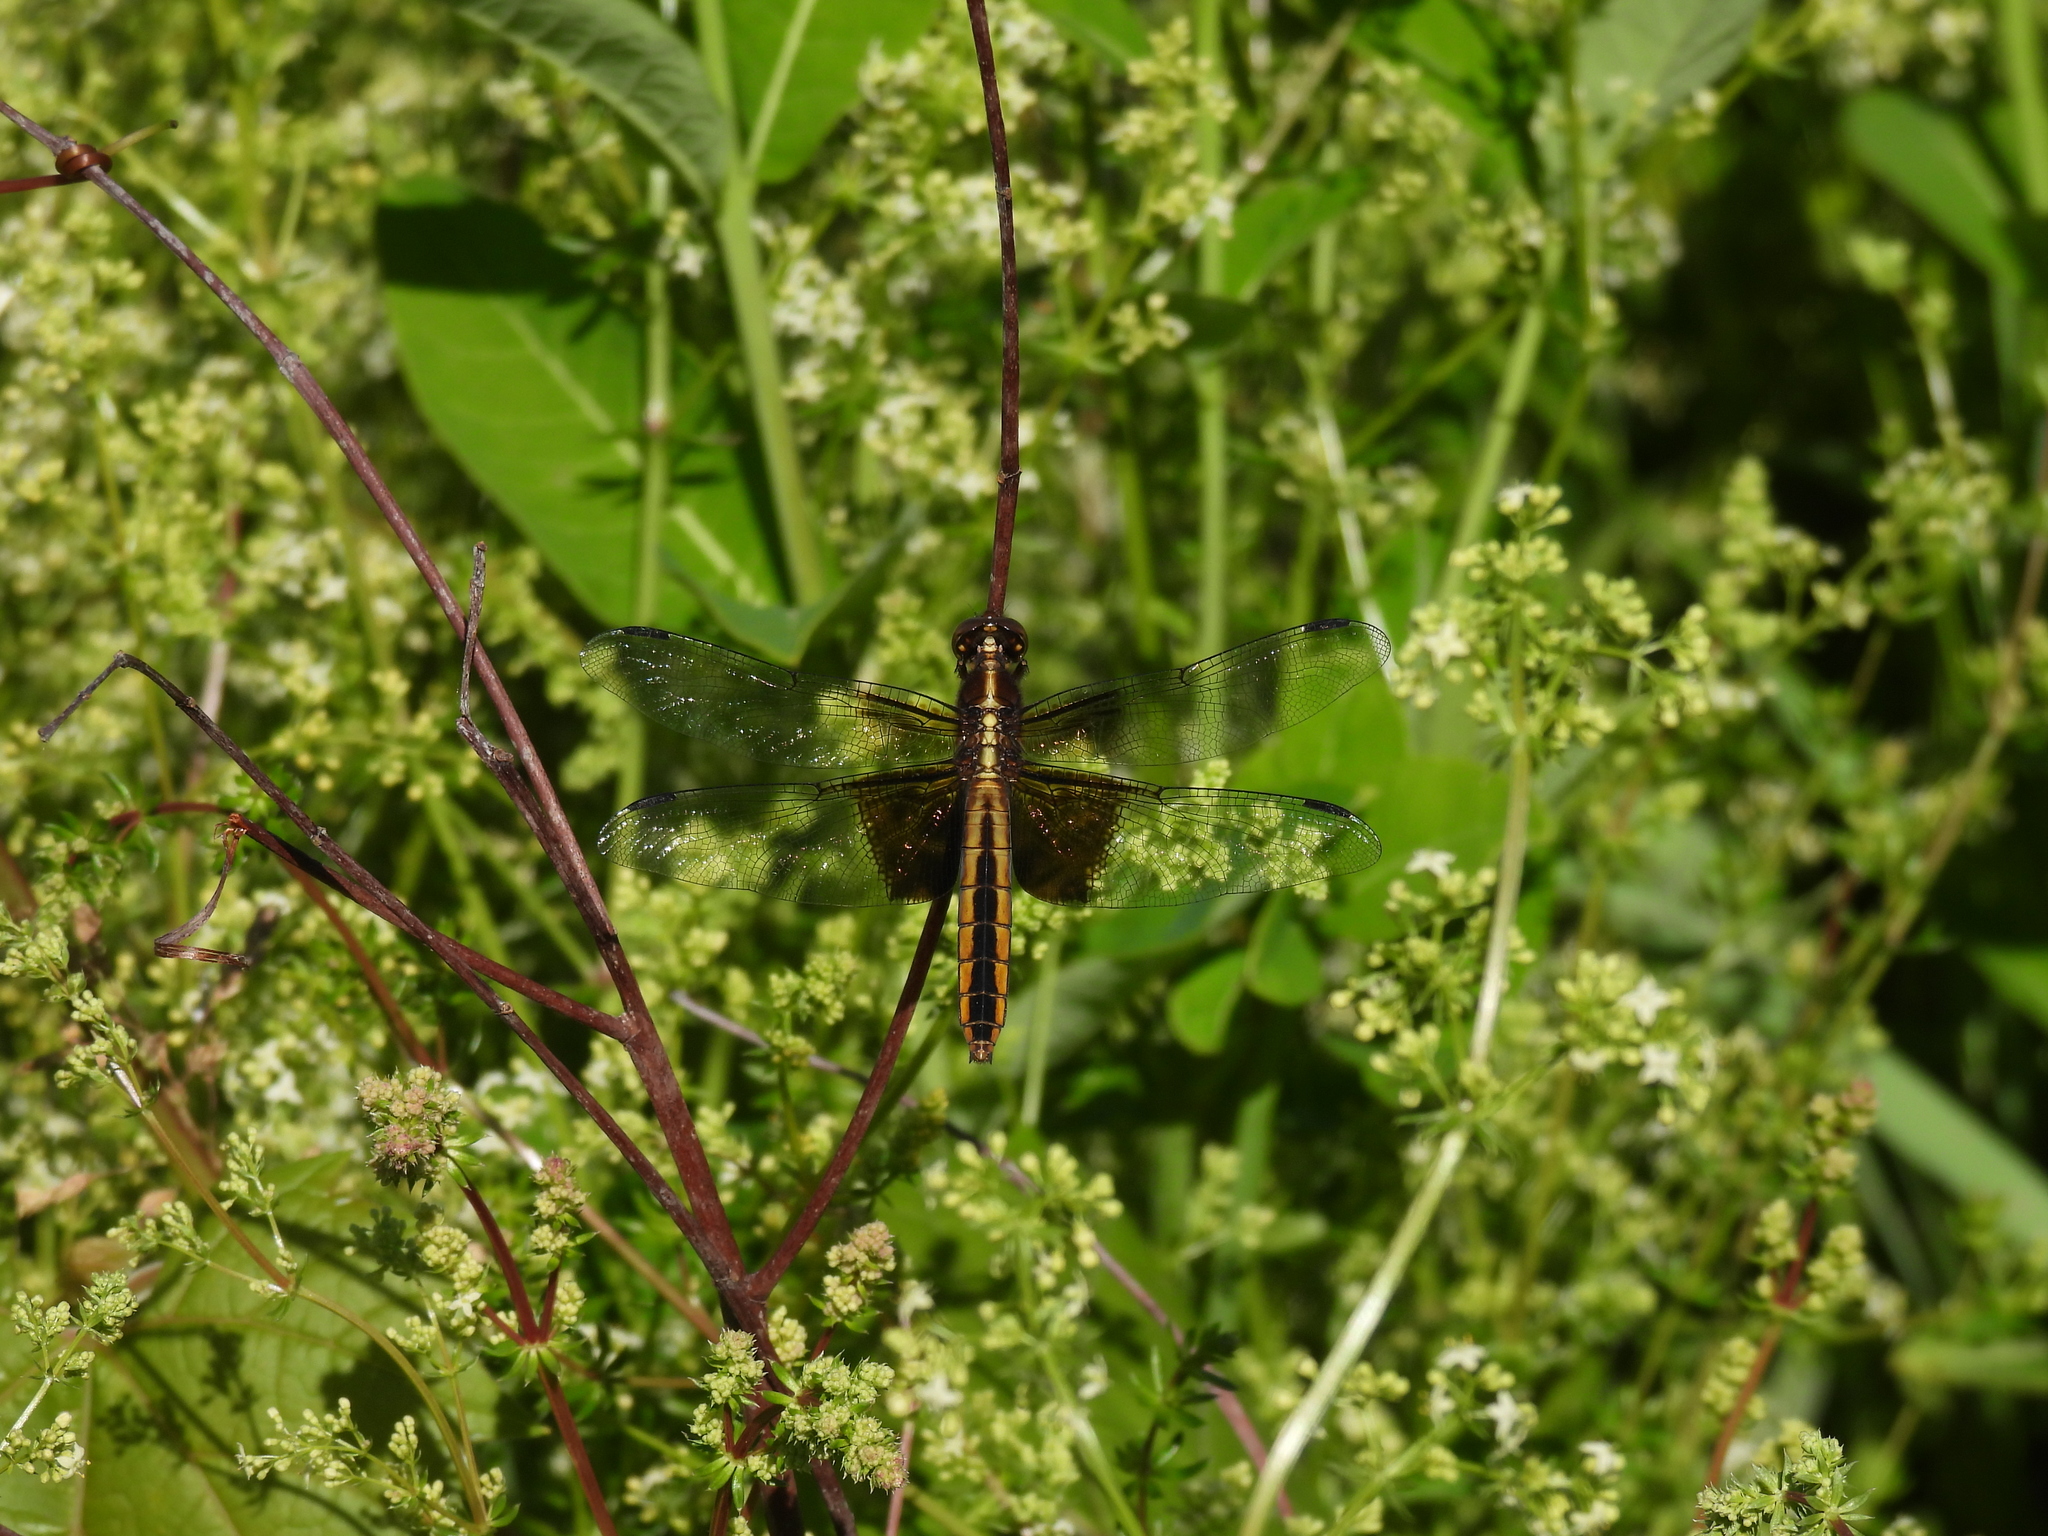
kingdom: Animalia
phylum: Arthropoda
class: Insecta
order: Odonata
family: Libellulidae
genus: Libellula
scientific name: Libellula luctuosa
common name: Widow skimmer
